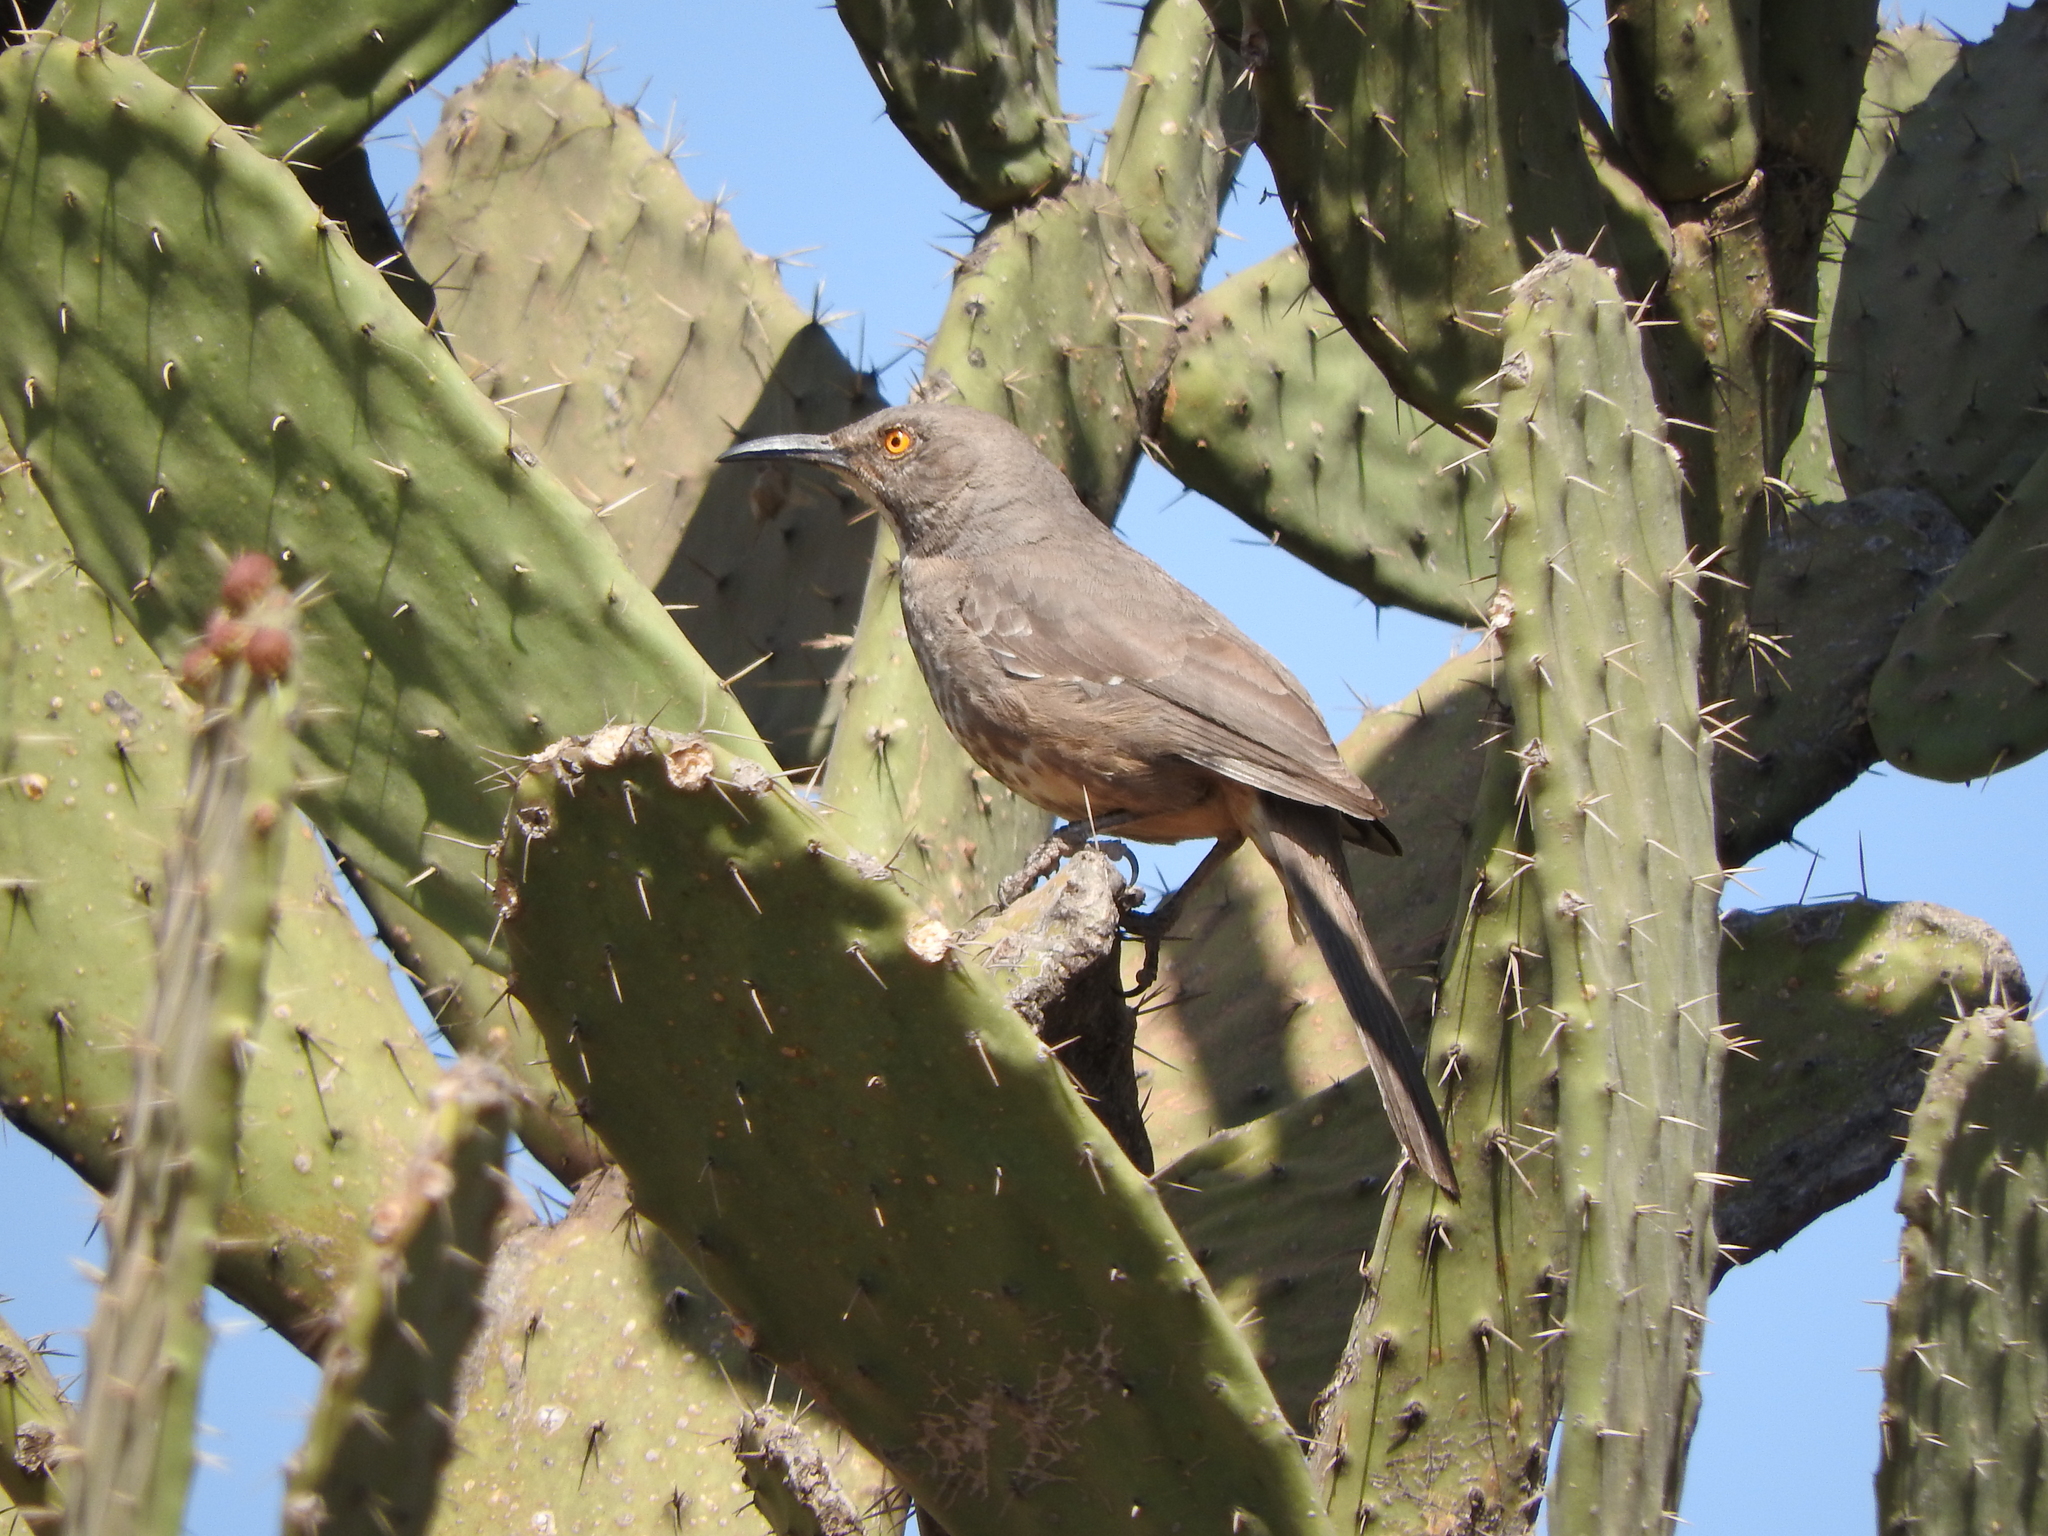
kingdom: Animalia
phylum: Chordata
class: Aves
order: Passeriformes
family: Mimidae
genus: Toxostoma
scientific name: Toxostoma curvirostre
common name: Curve-billed thrasher
